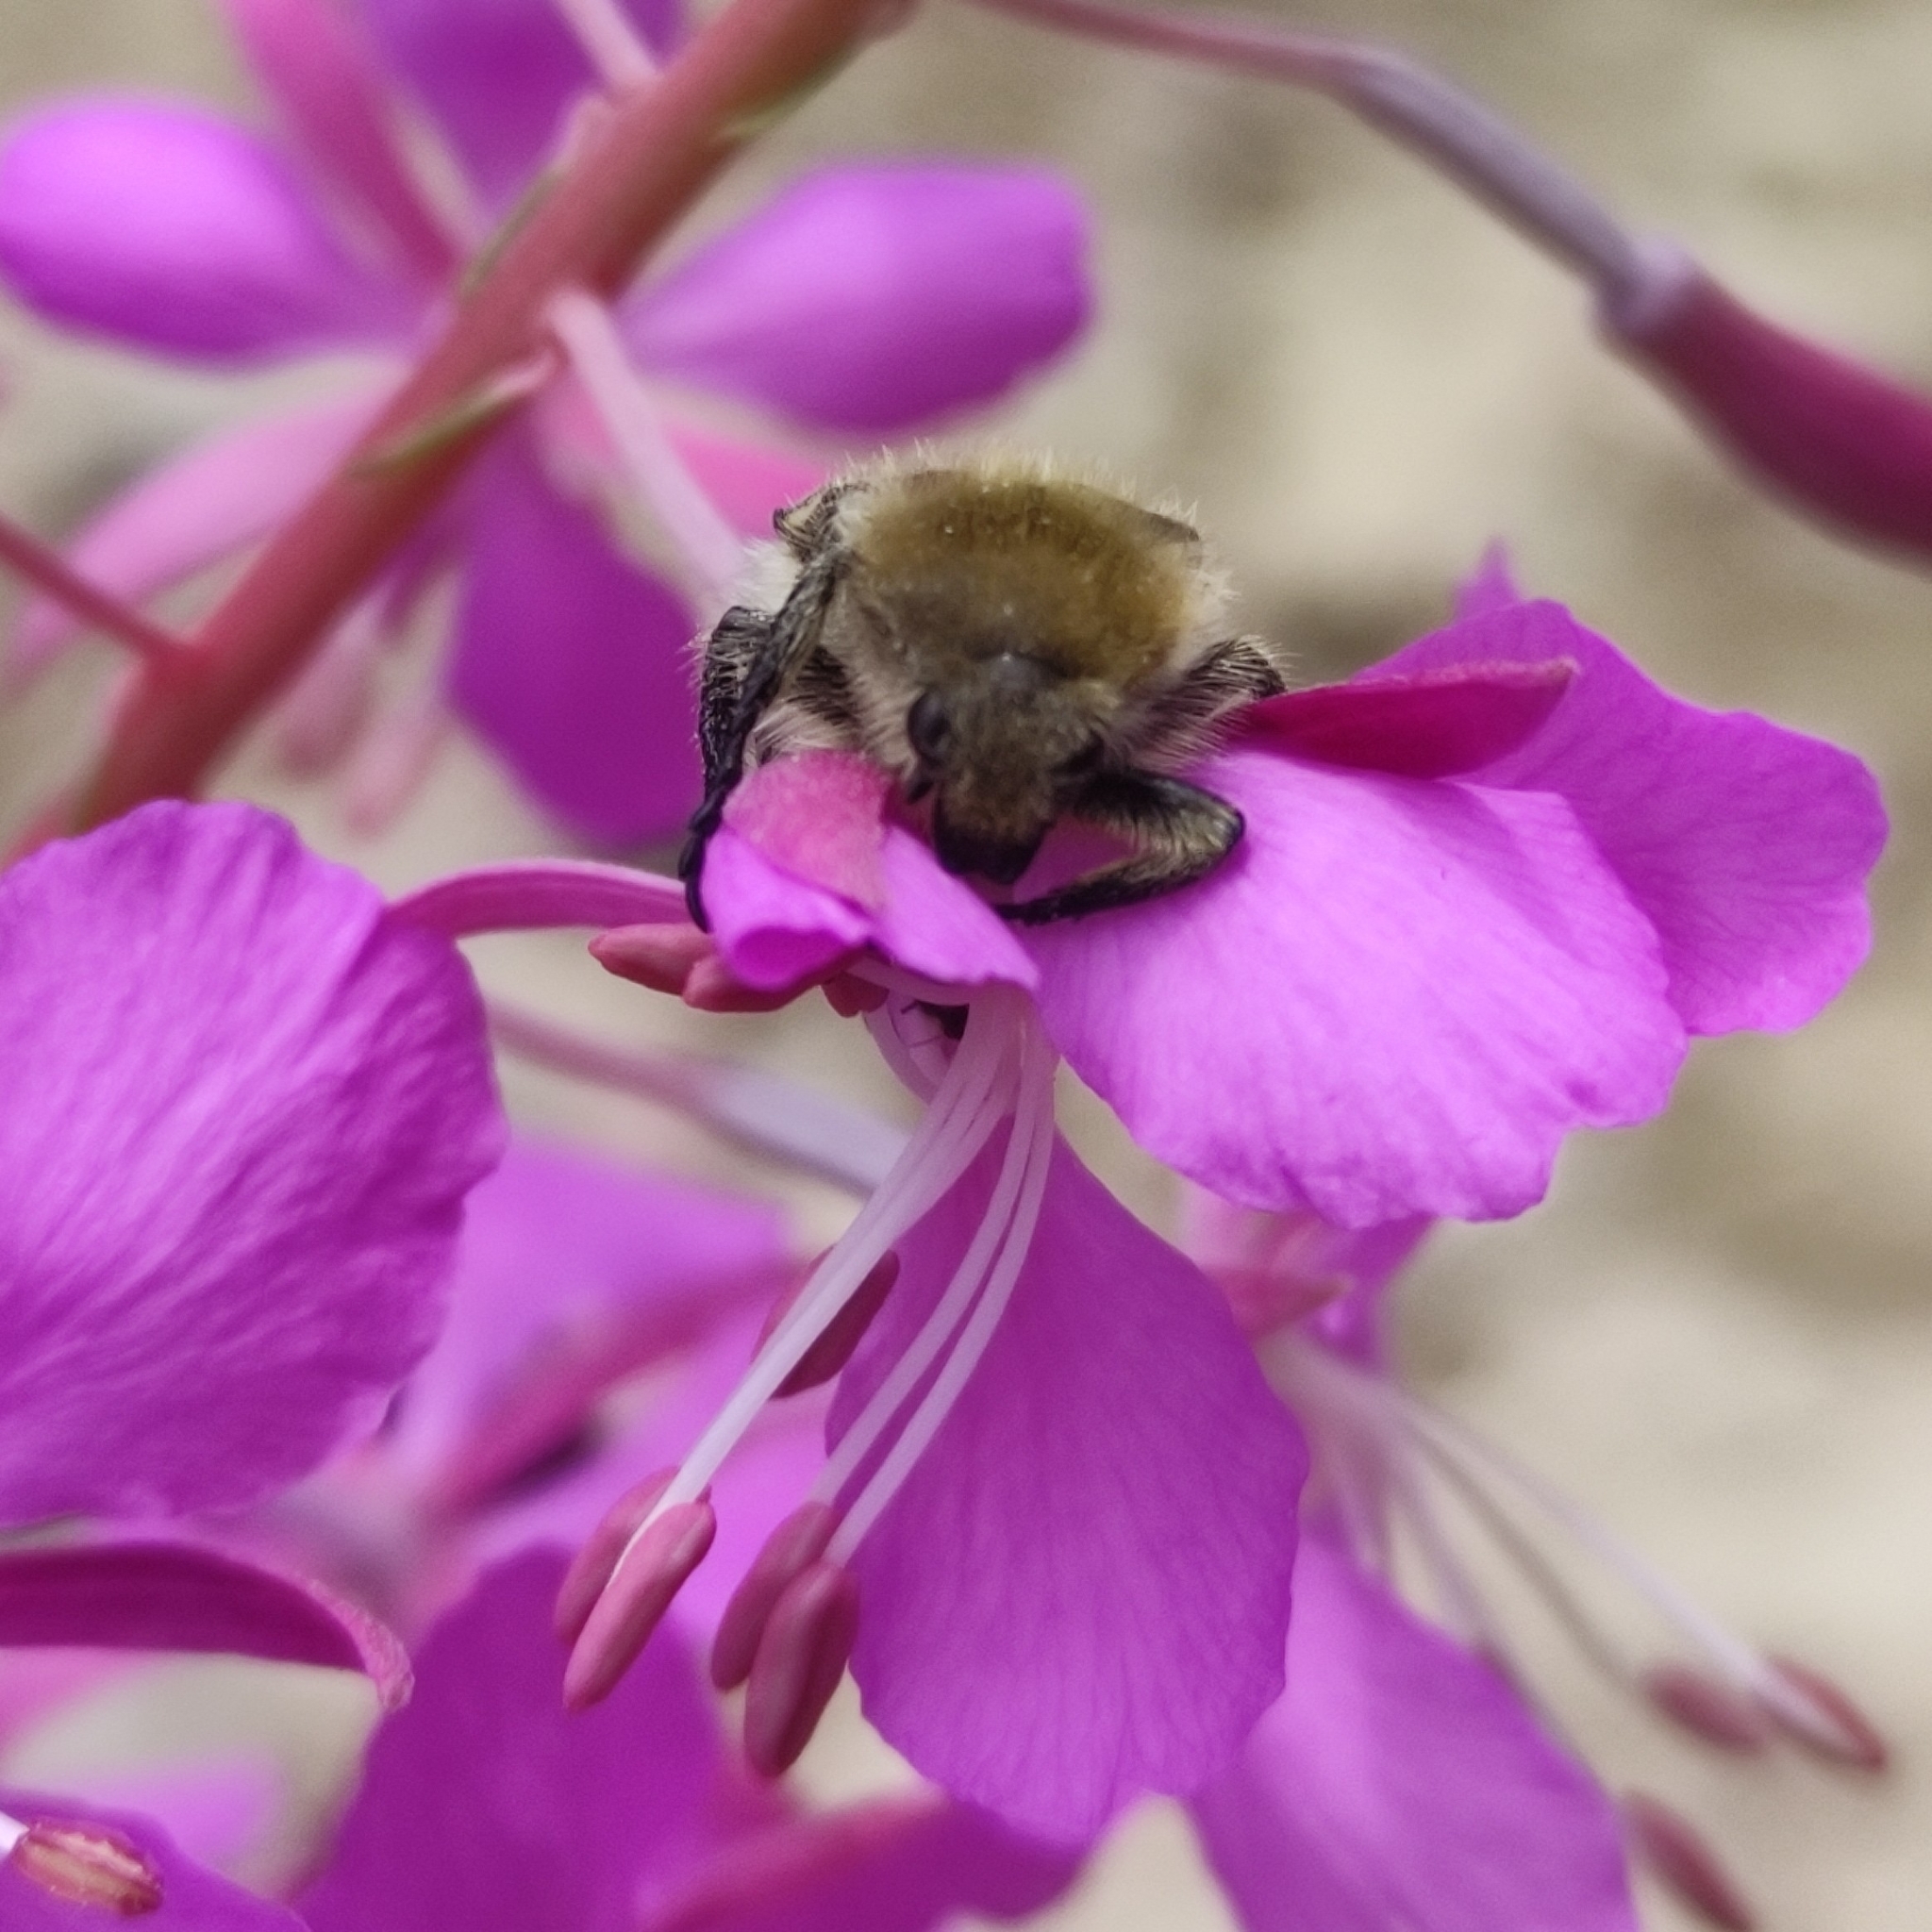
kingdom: Animalia
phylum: Arthropoda
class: Insecta
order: Coleoptera
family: Scarabaeidae
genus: Trichius
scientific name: Trichius fasciatus
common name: Bee beetle
